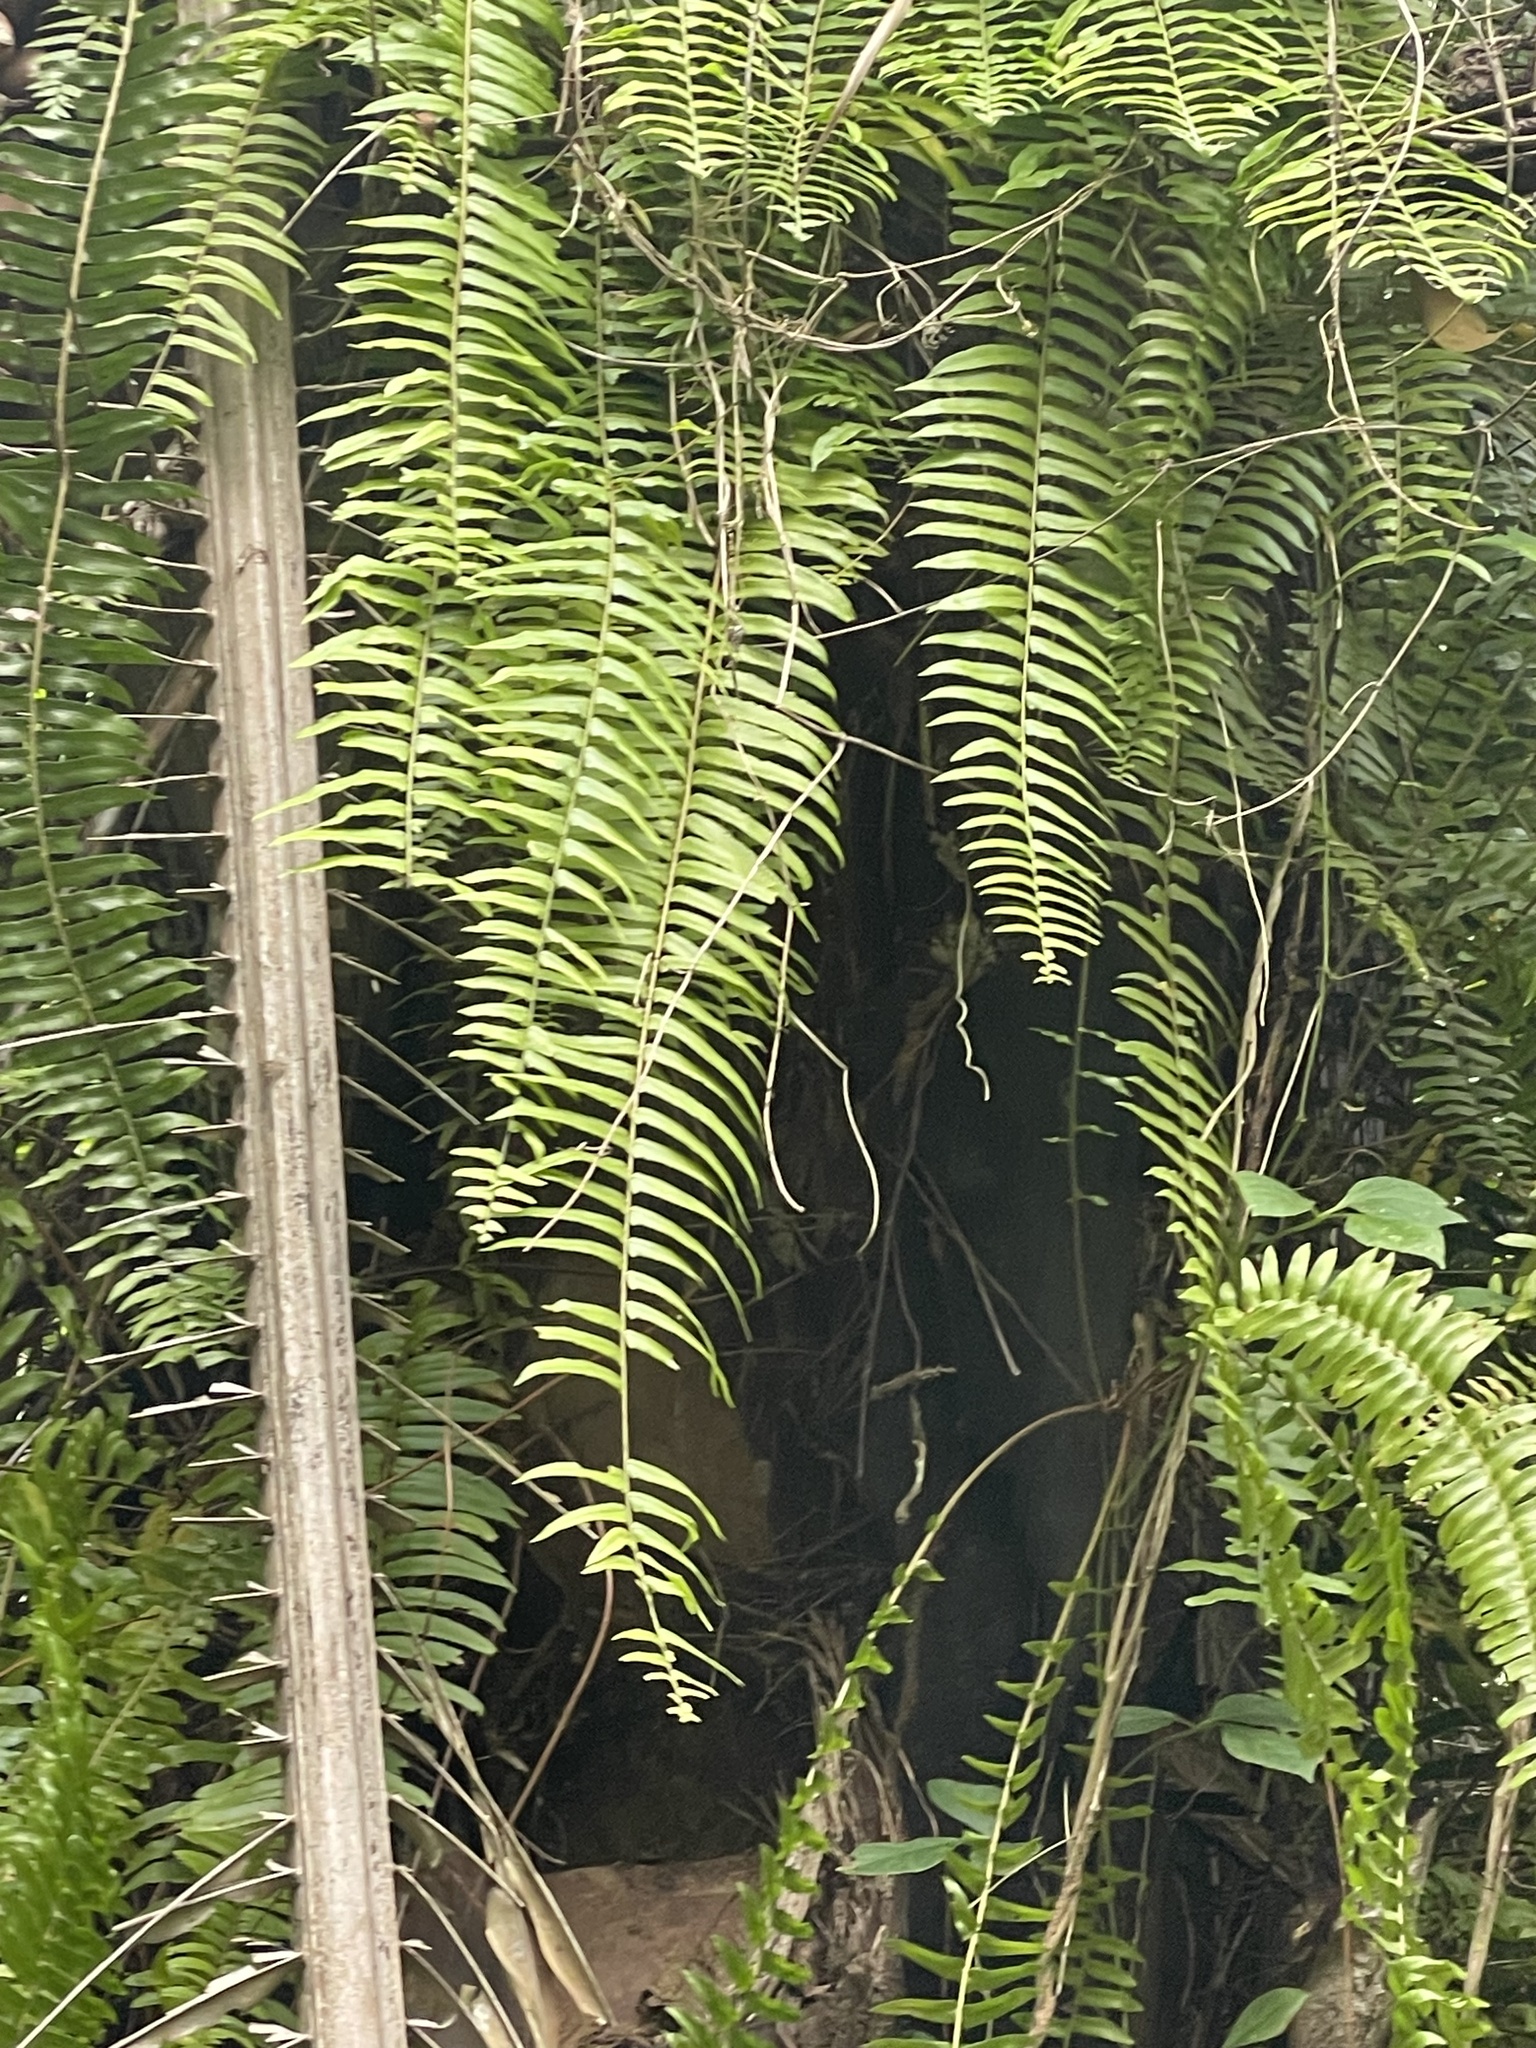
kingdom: Plantae
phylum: Tracheophyta
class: Polypodiopsida
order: Polypodiales
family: Nephrolepidaceae
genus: Nephrolepis
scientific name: Nephrolepis biserrata
